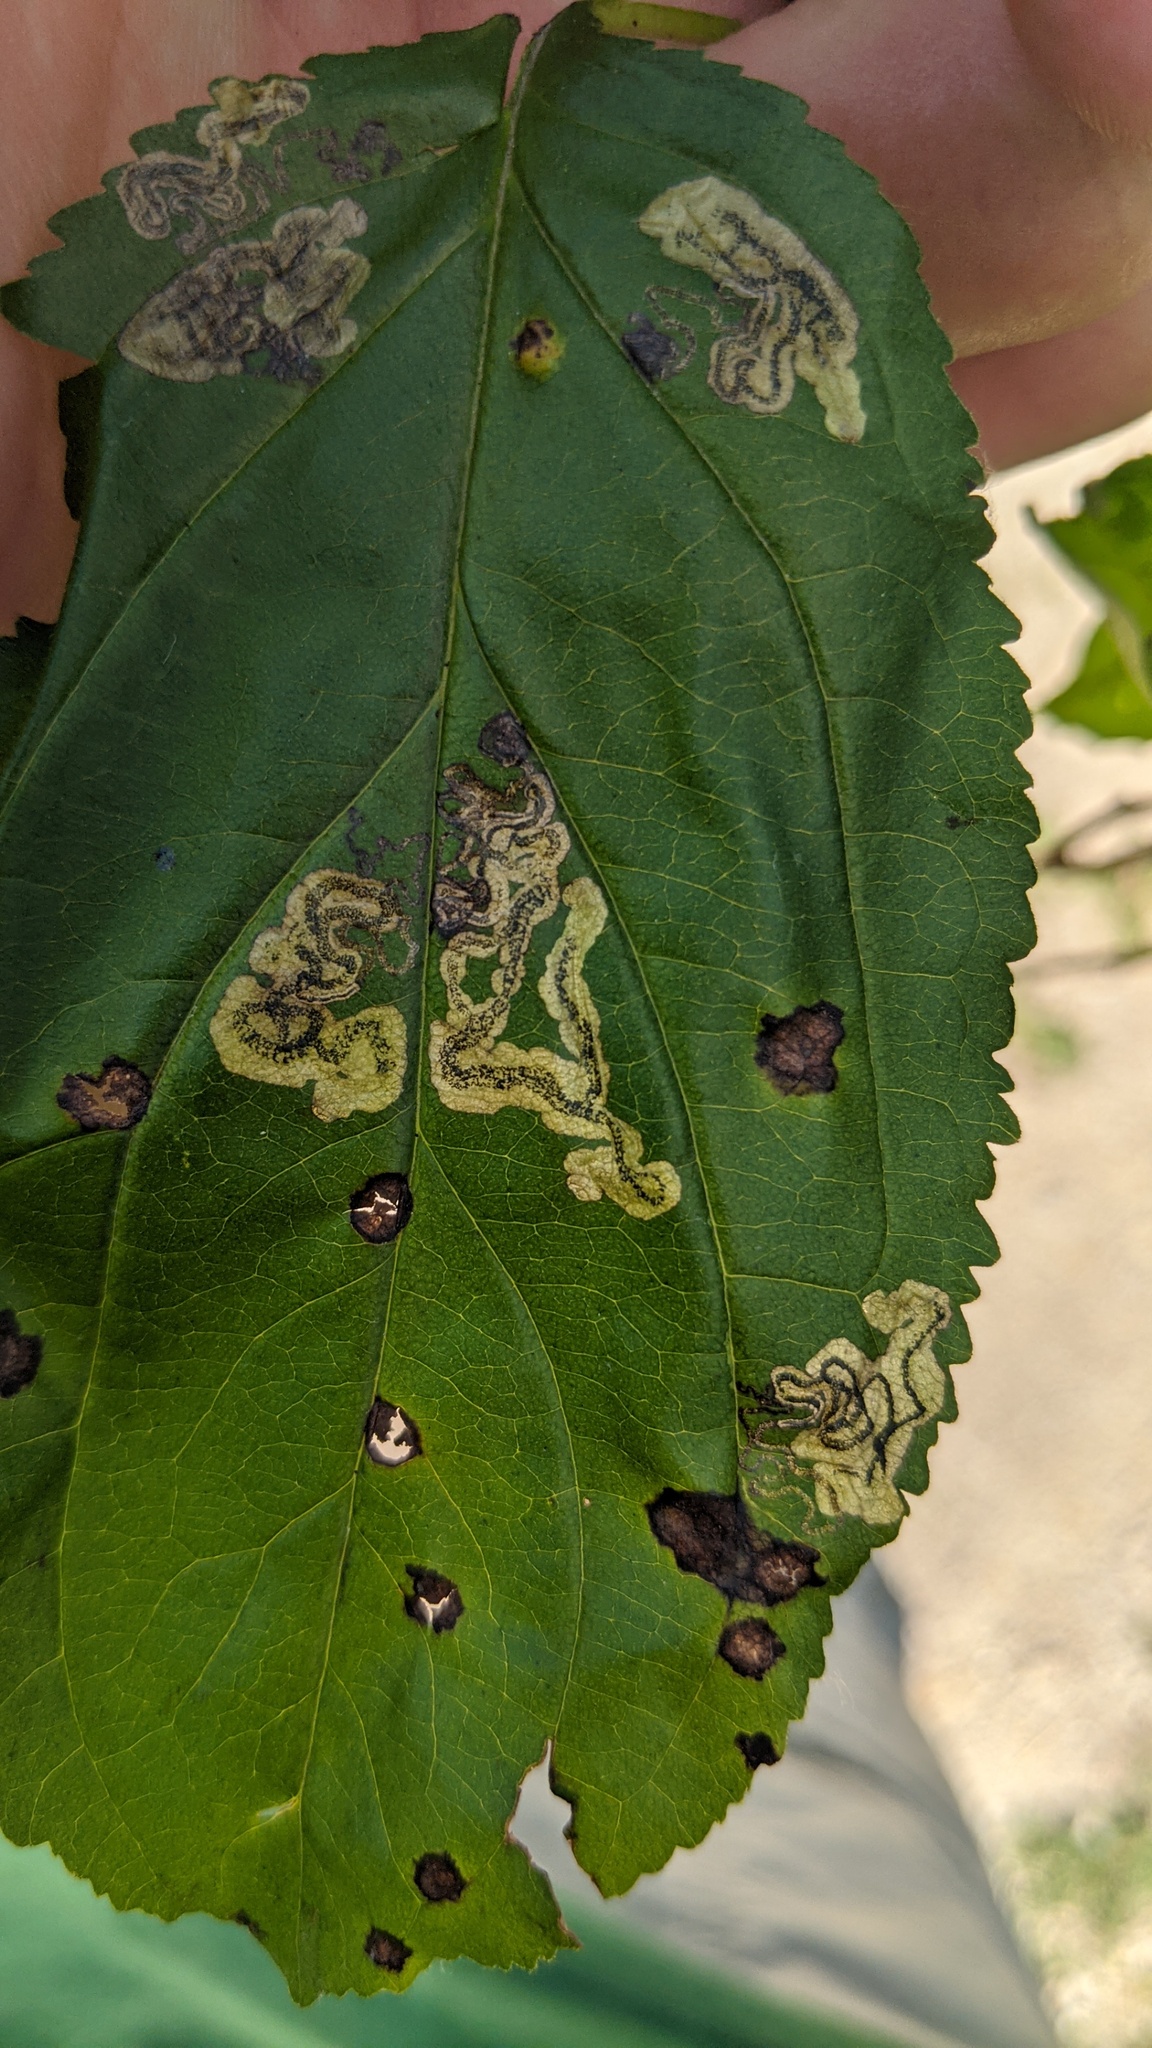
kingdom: Animalia
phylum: Arthropoda
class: Insecta
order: Lepidoptera
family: Nepticulidae
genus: Stigmella
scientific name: Stigmella rhamnicola
